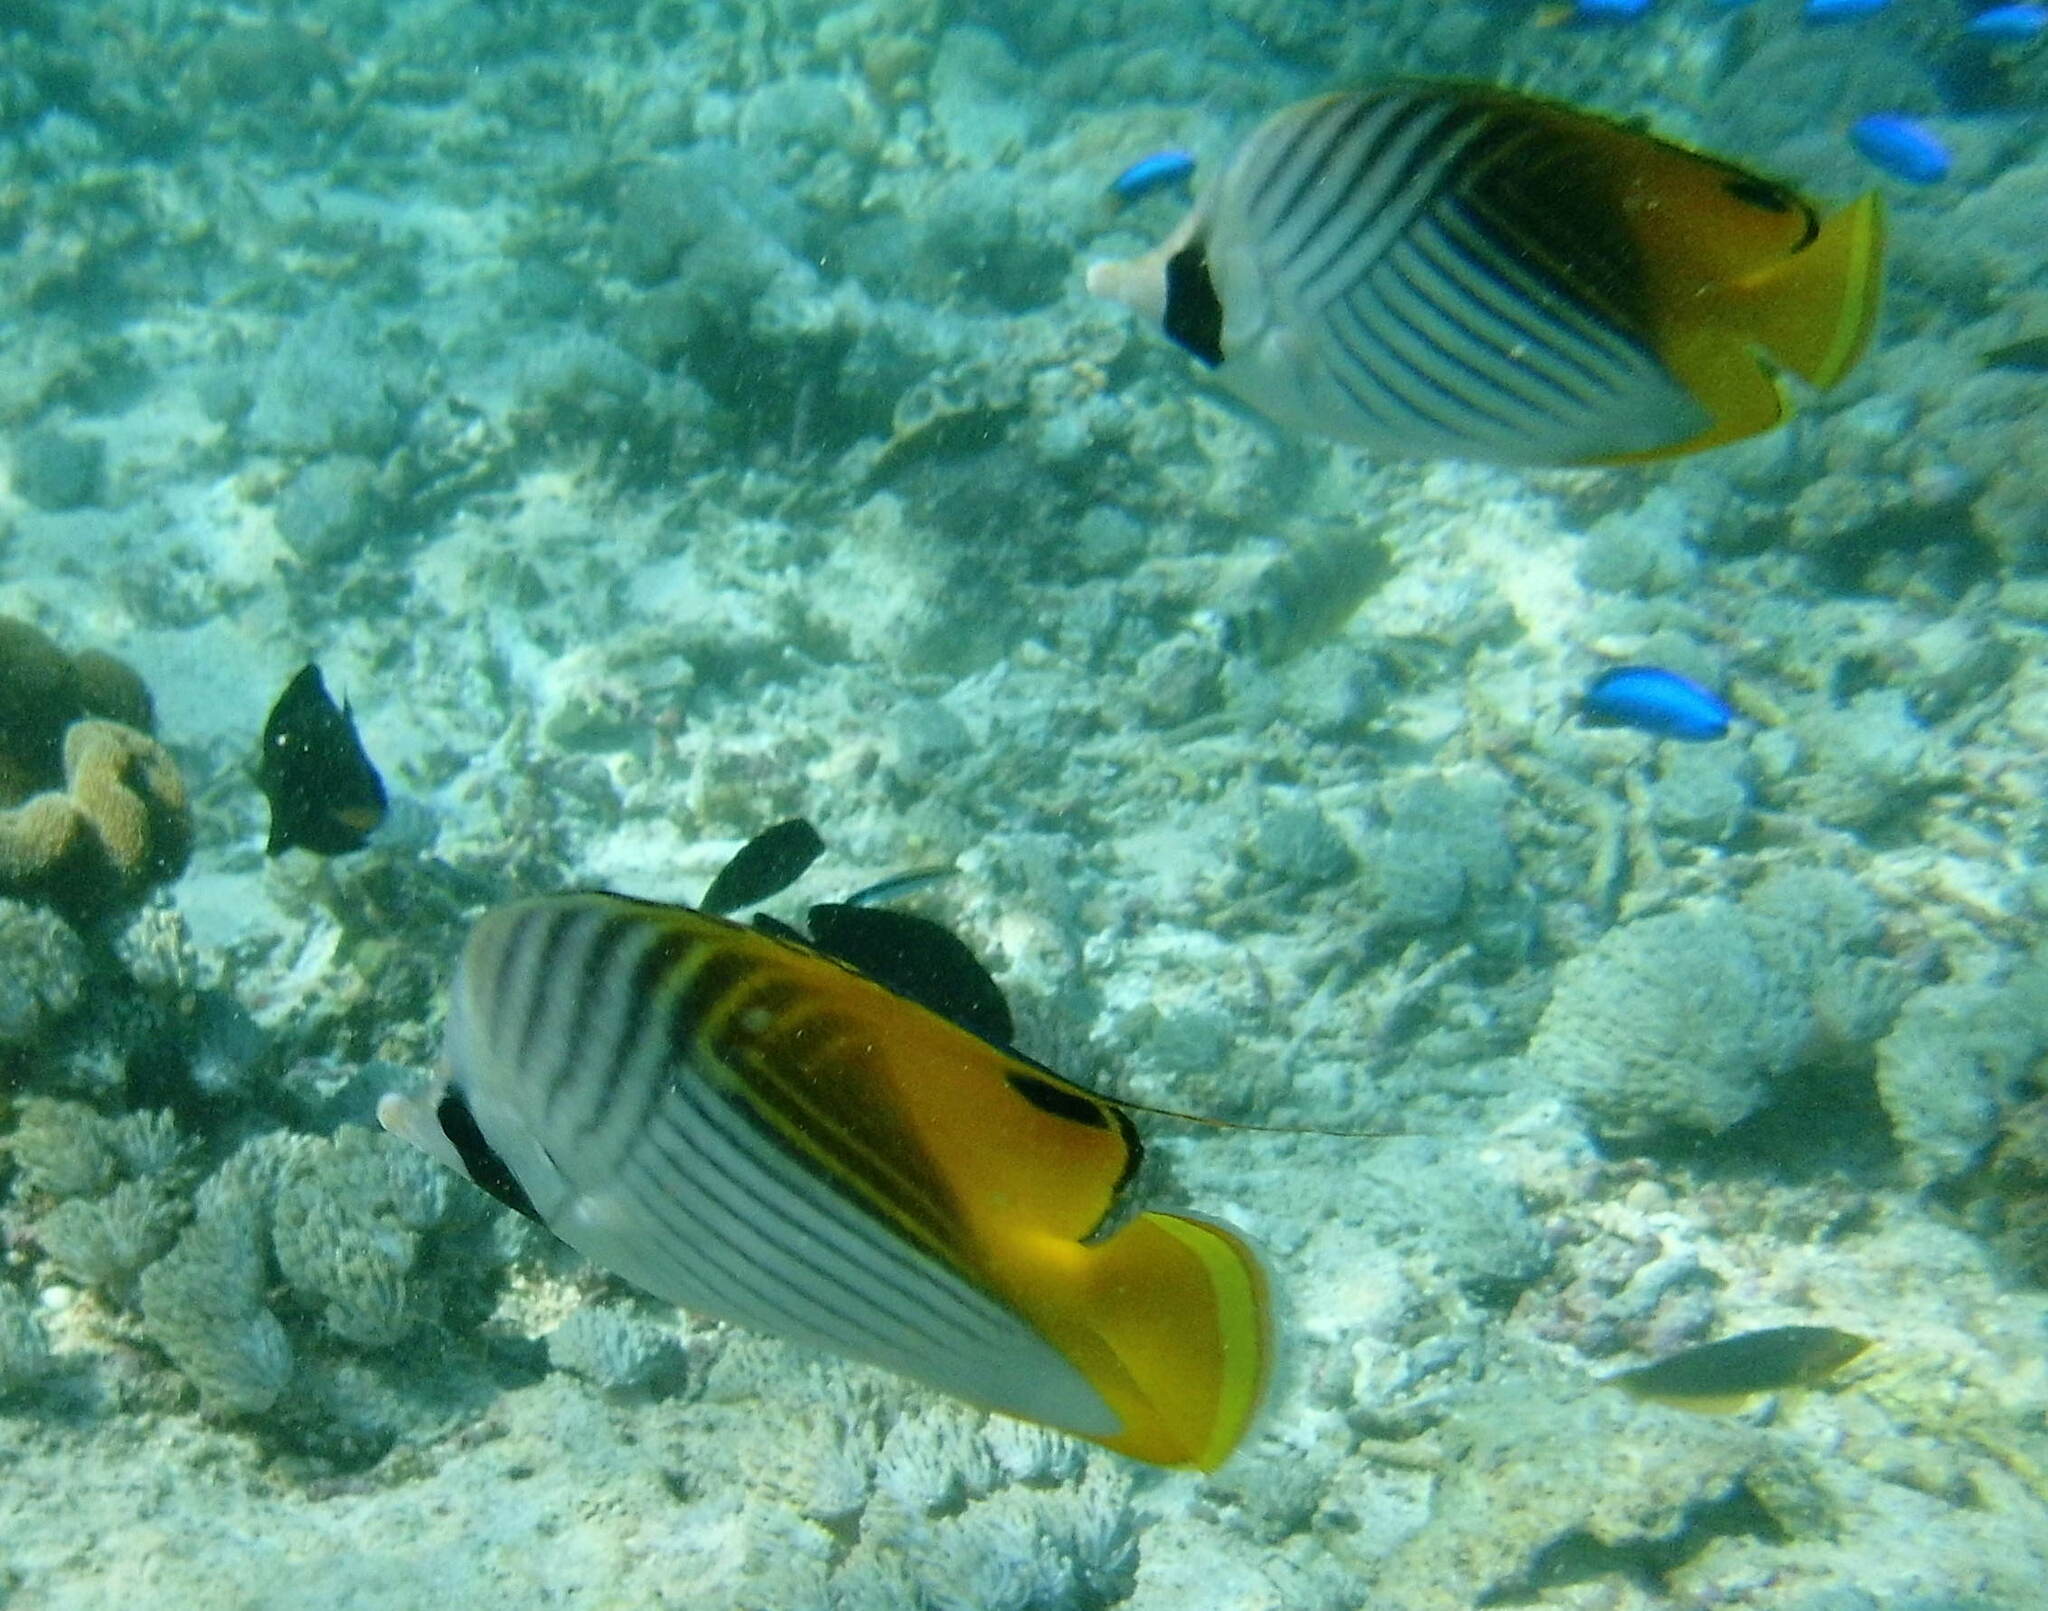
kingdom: Animalia
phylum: Chordata
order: Perciformes
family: Chaetodontidae
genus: Chaetodon
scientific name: Chaetodon auriga
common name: Threadfin butterflyfish
